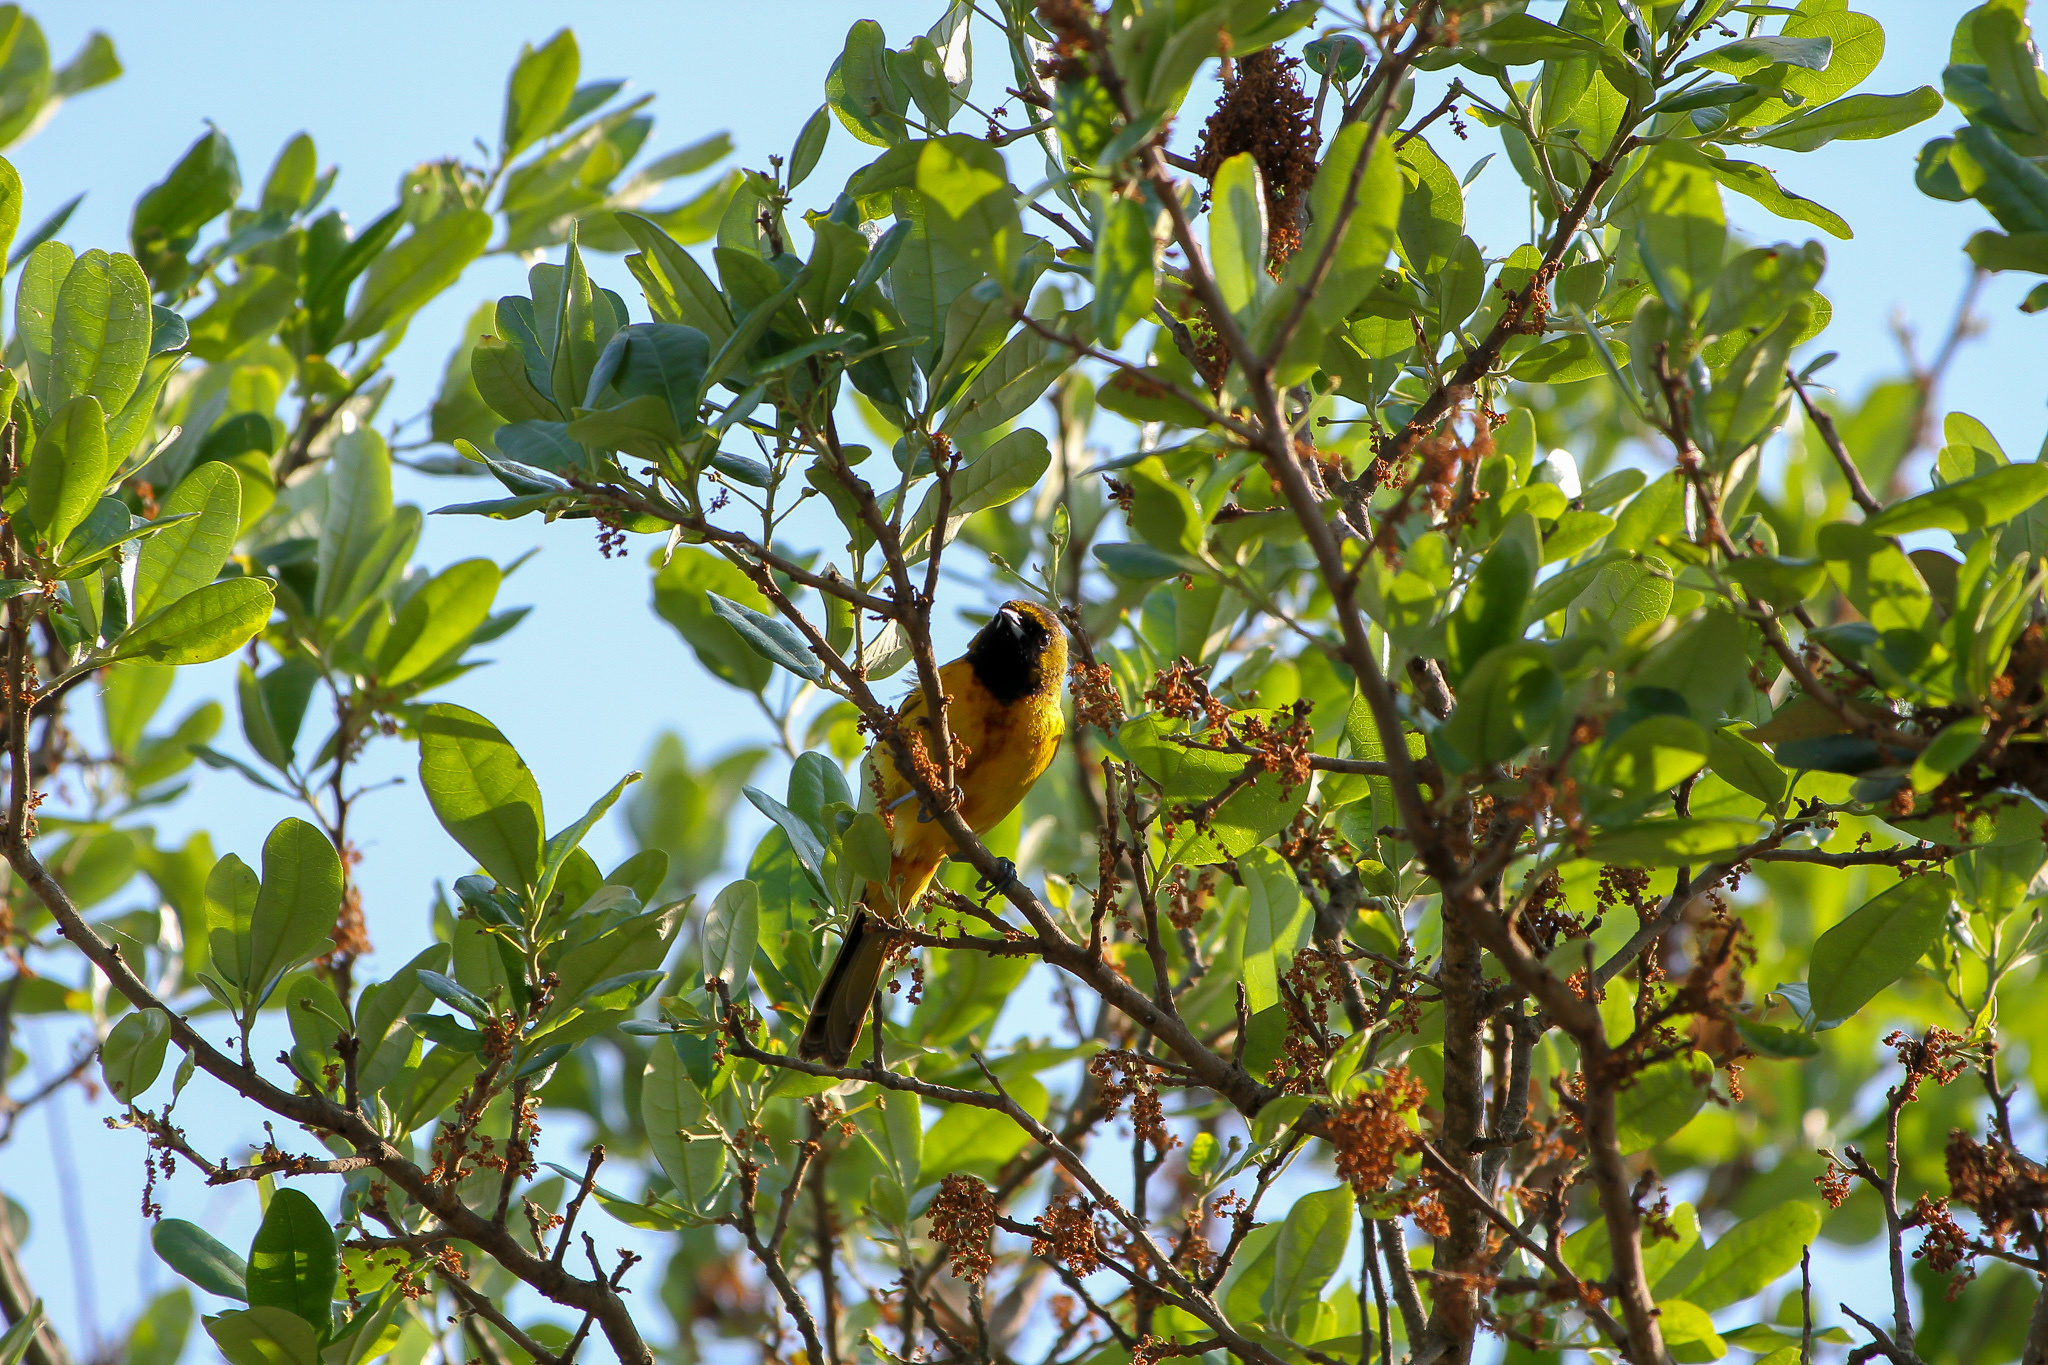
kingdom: Animalia
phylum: Chordata
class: Aves
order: Passeriformes
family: Icteridae
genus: Icterus
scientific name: Icterus spurius
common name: Orchard oriole
